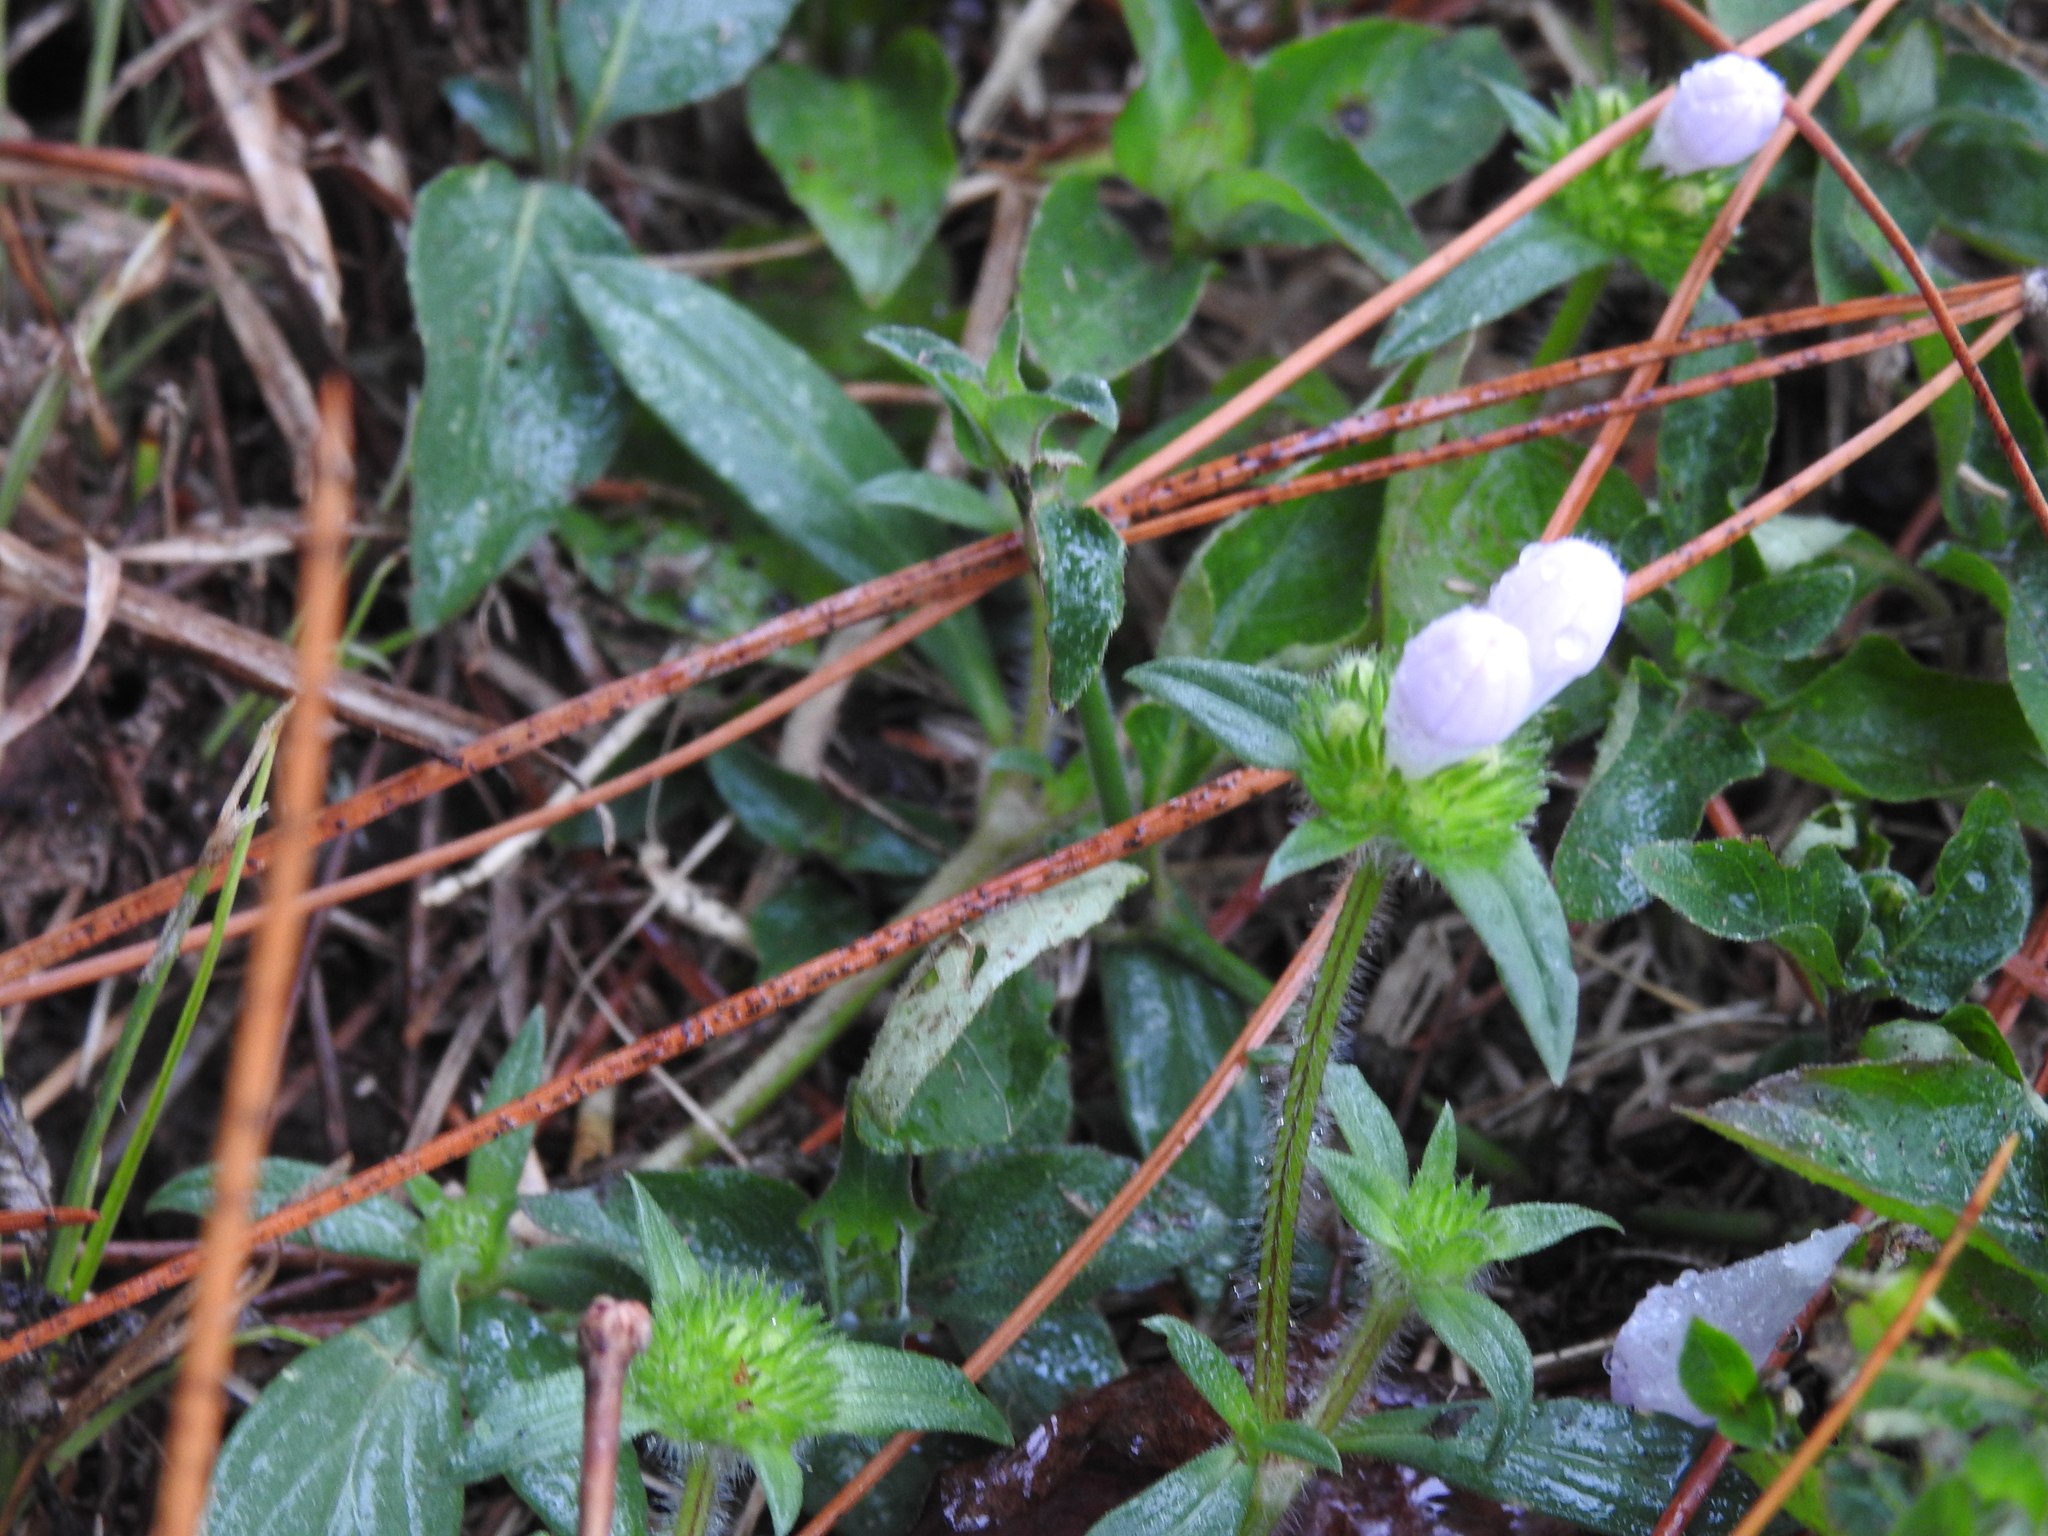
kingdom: Plantae
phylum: Tracheophyta
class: Magnoliopsida
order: Gentianales
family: Rubiaceae
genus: Richardia
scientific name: Richardia grandiflora
